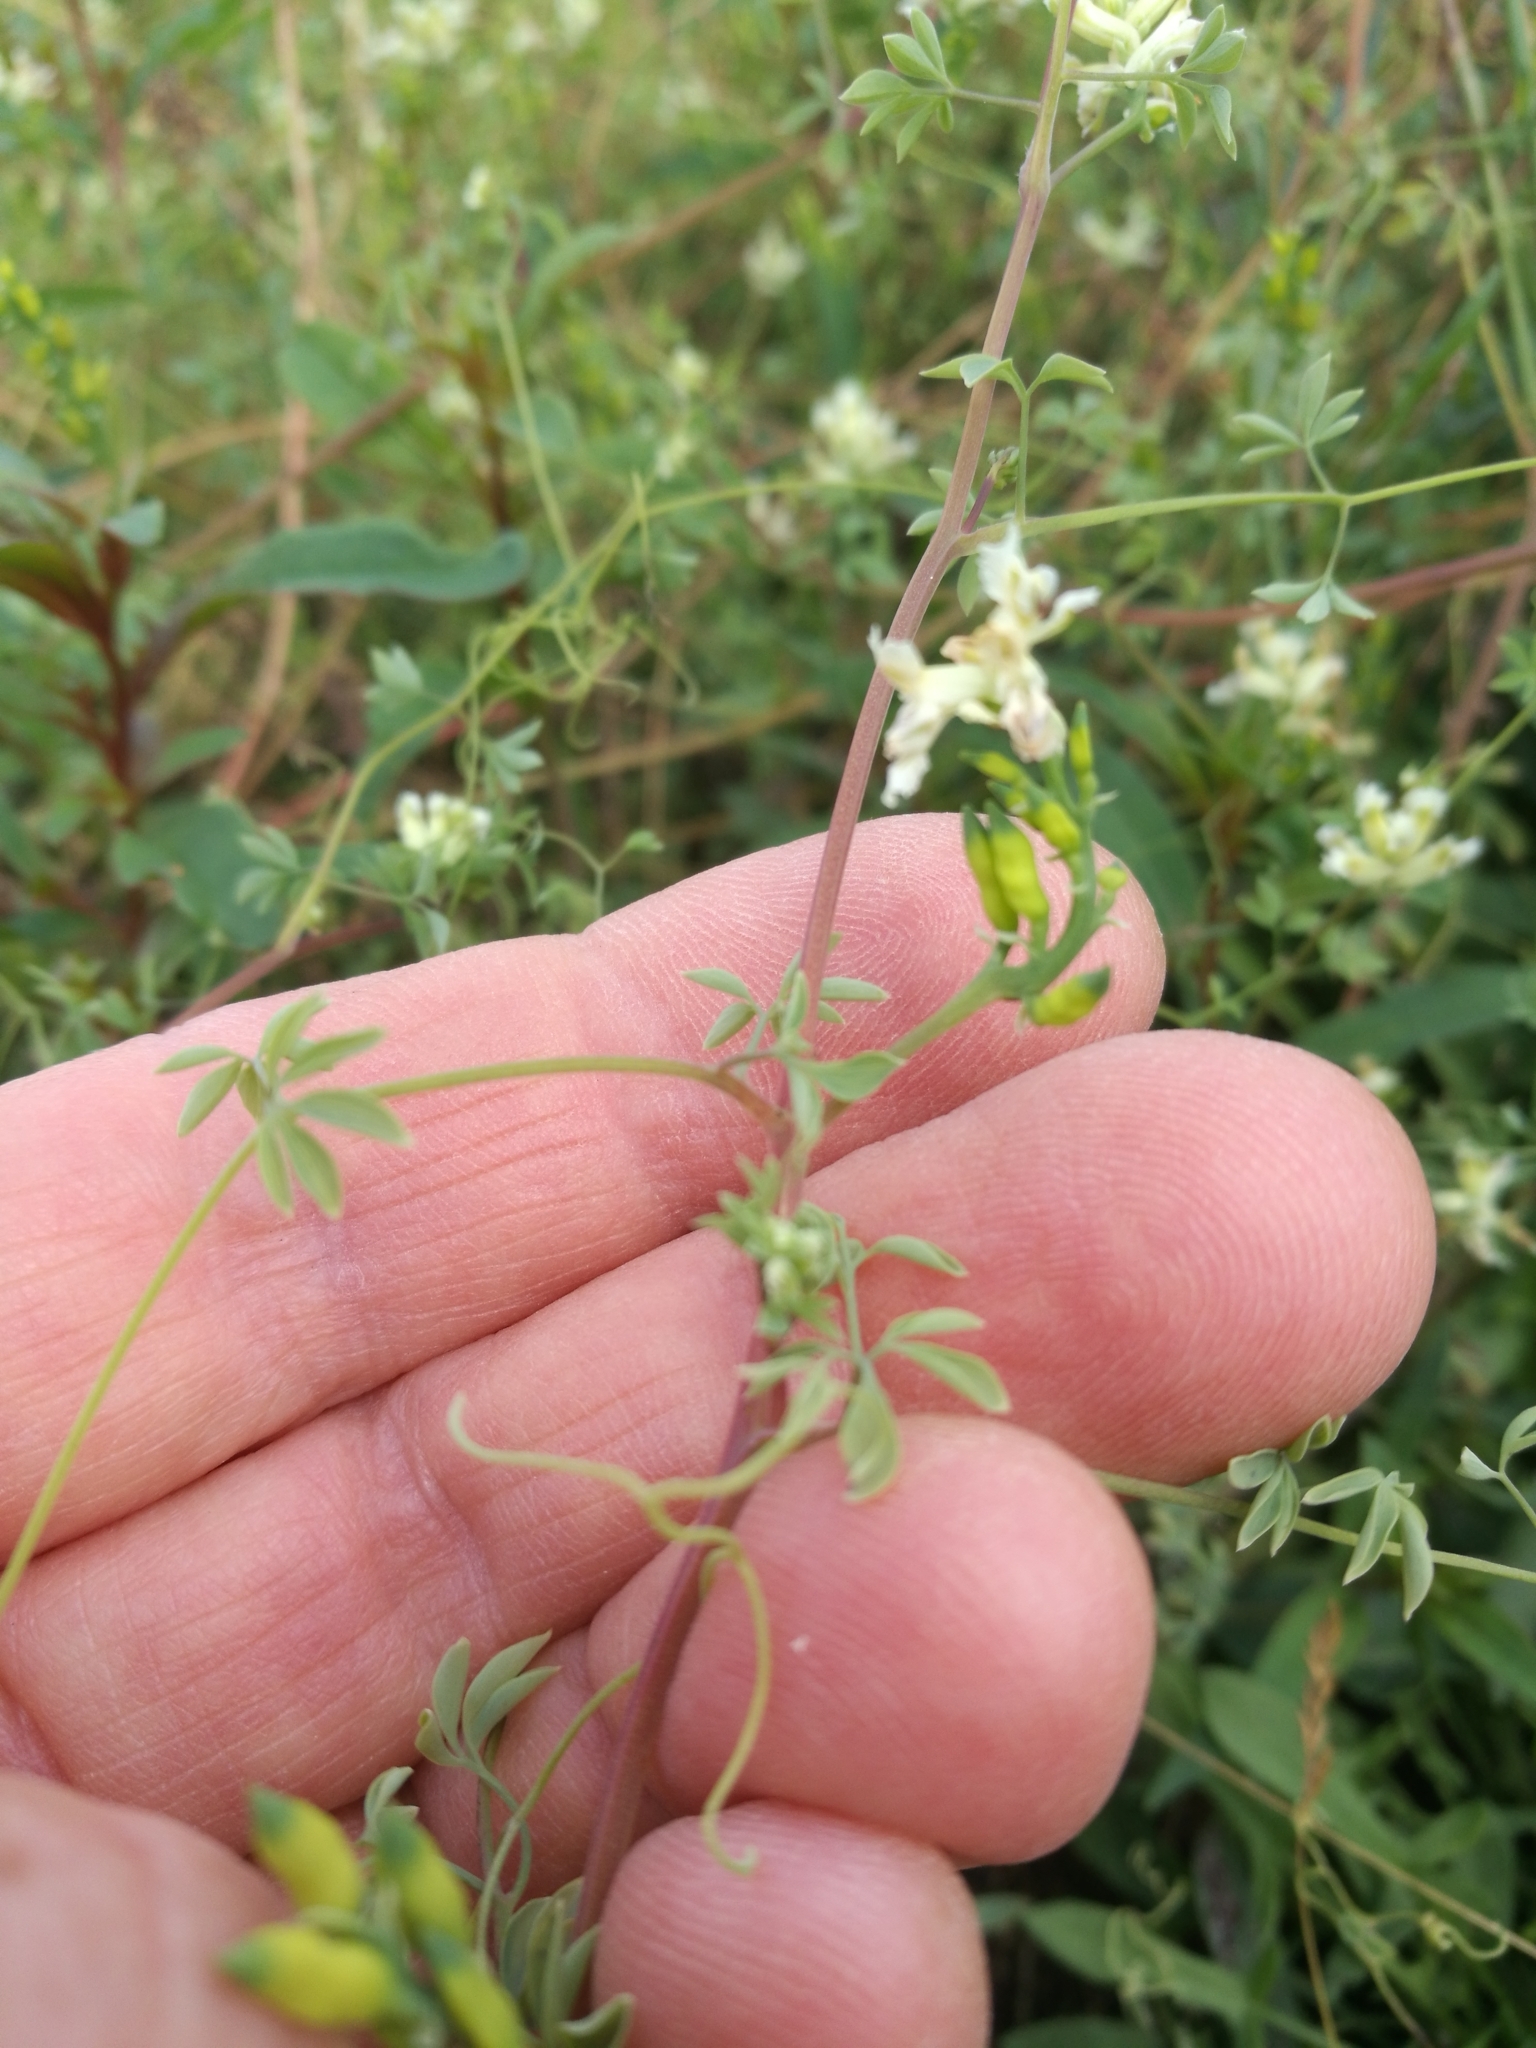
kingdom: Plantae
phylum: Tracheophyta
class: Magnoliopsida
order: Ranunculales
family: Papaveraceae
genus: Ceratocapnos
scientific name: Ceratocapnos claviculata
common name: Climbing corydalis
